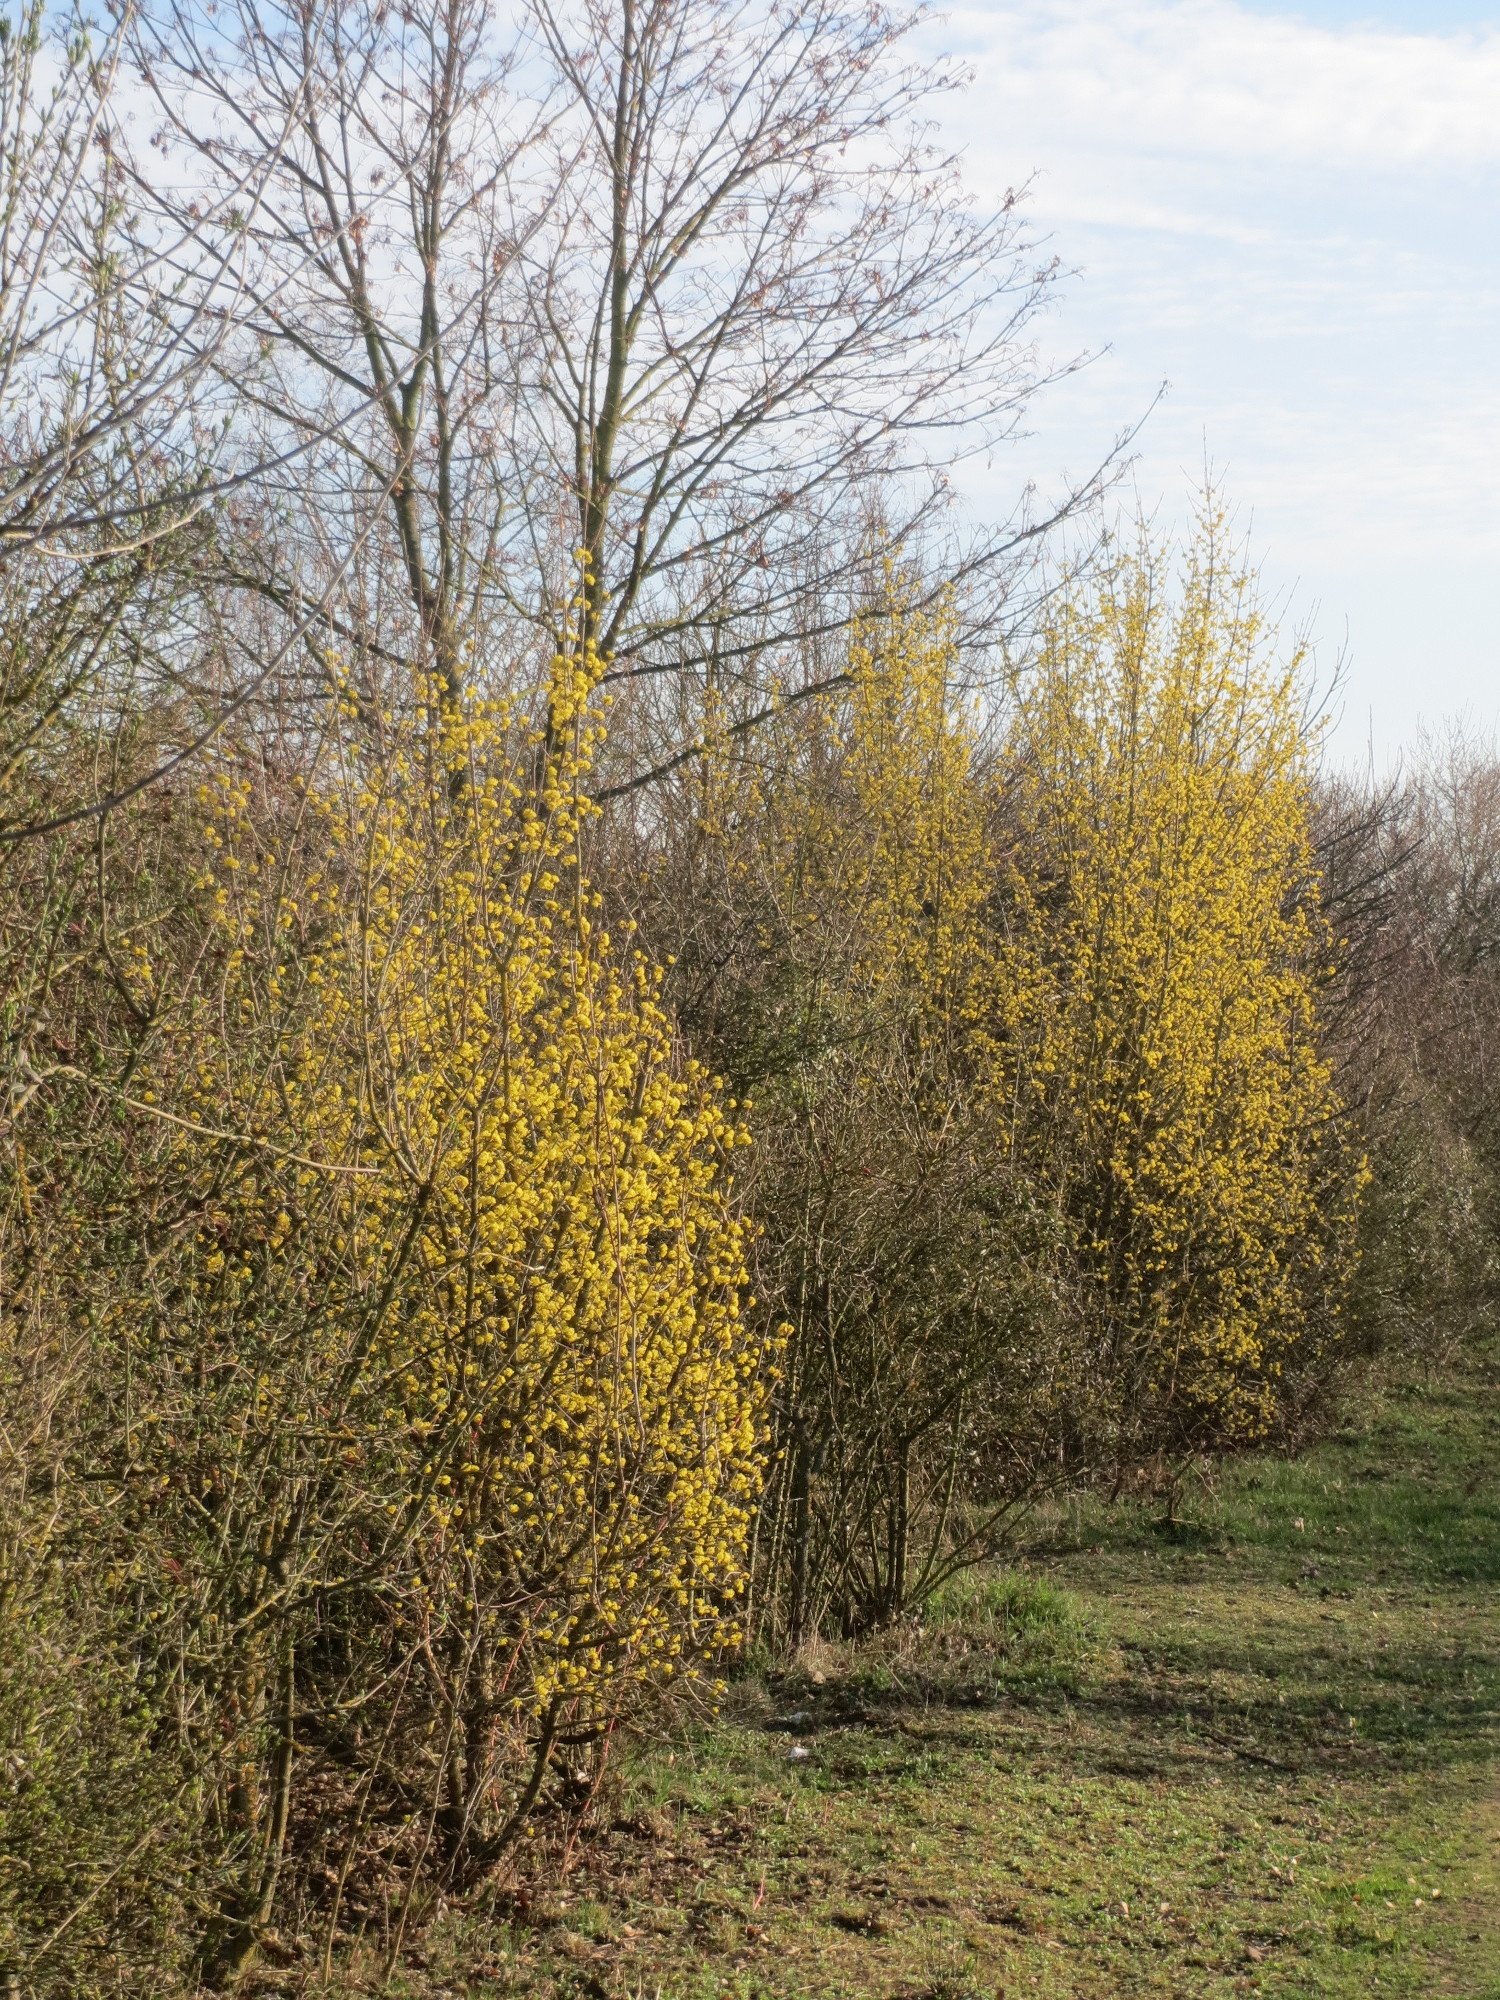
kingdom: Plantae
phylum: Tracheophyta
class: Magnoliopsida
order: Cornales
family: Cornaceae
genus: Cornus
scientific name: Cornus mas
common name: Cornelian-cherry
